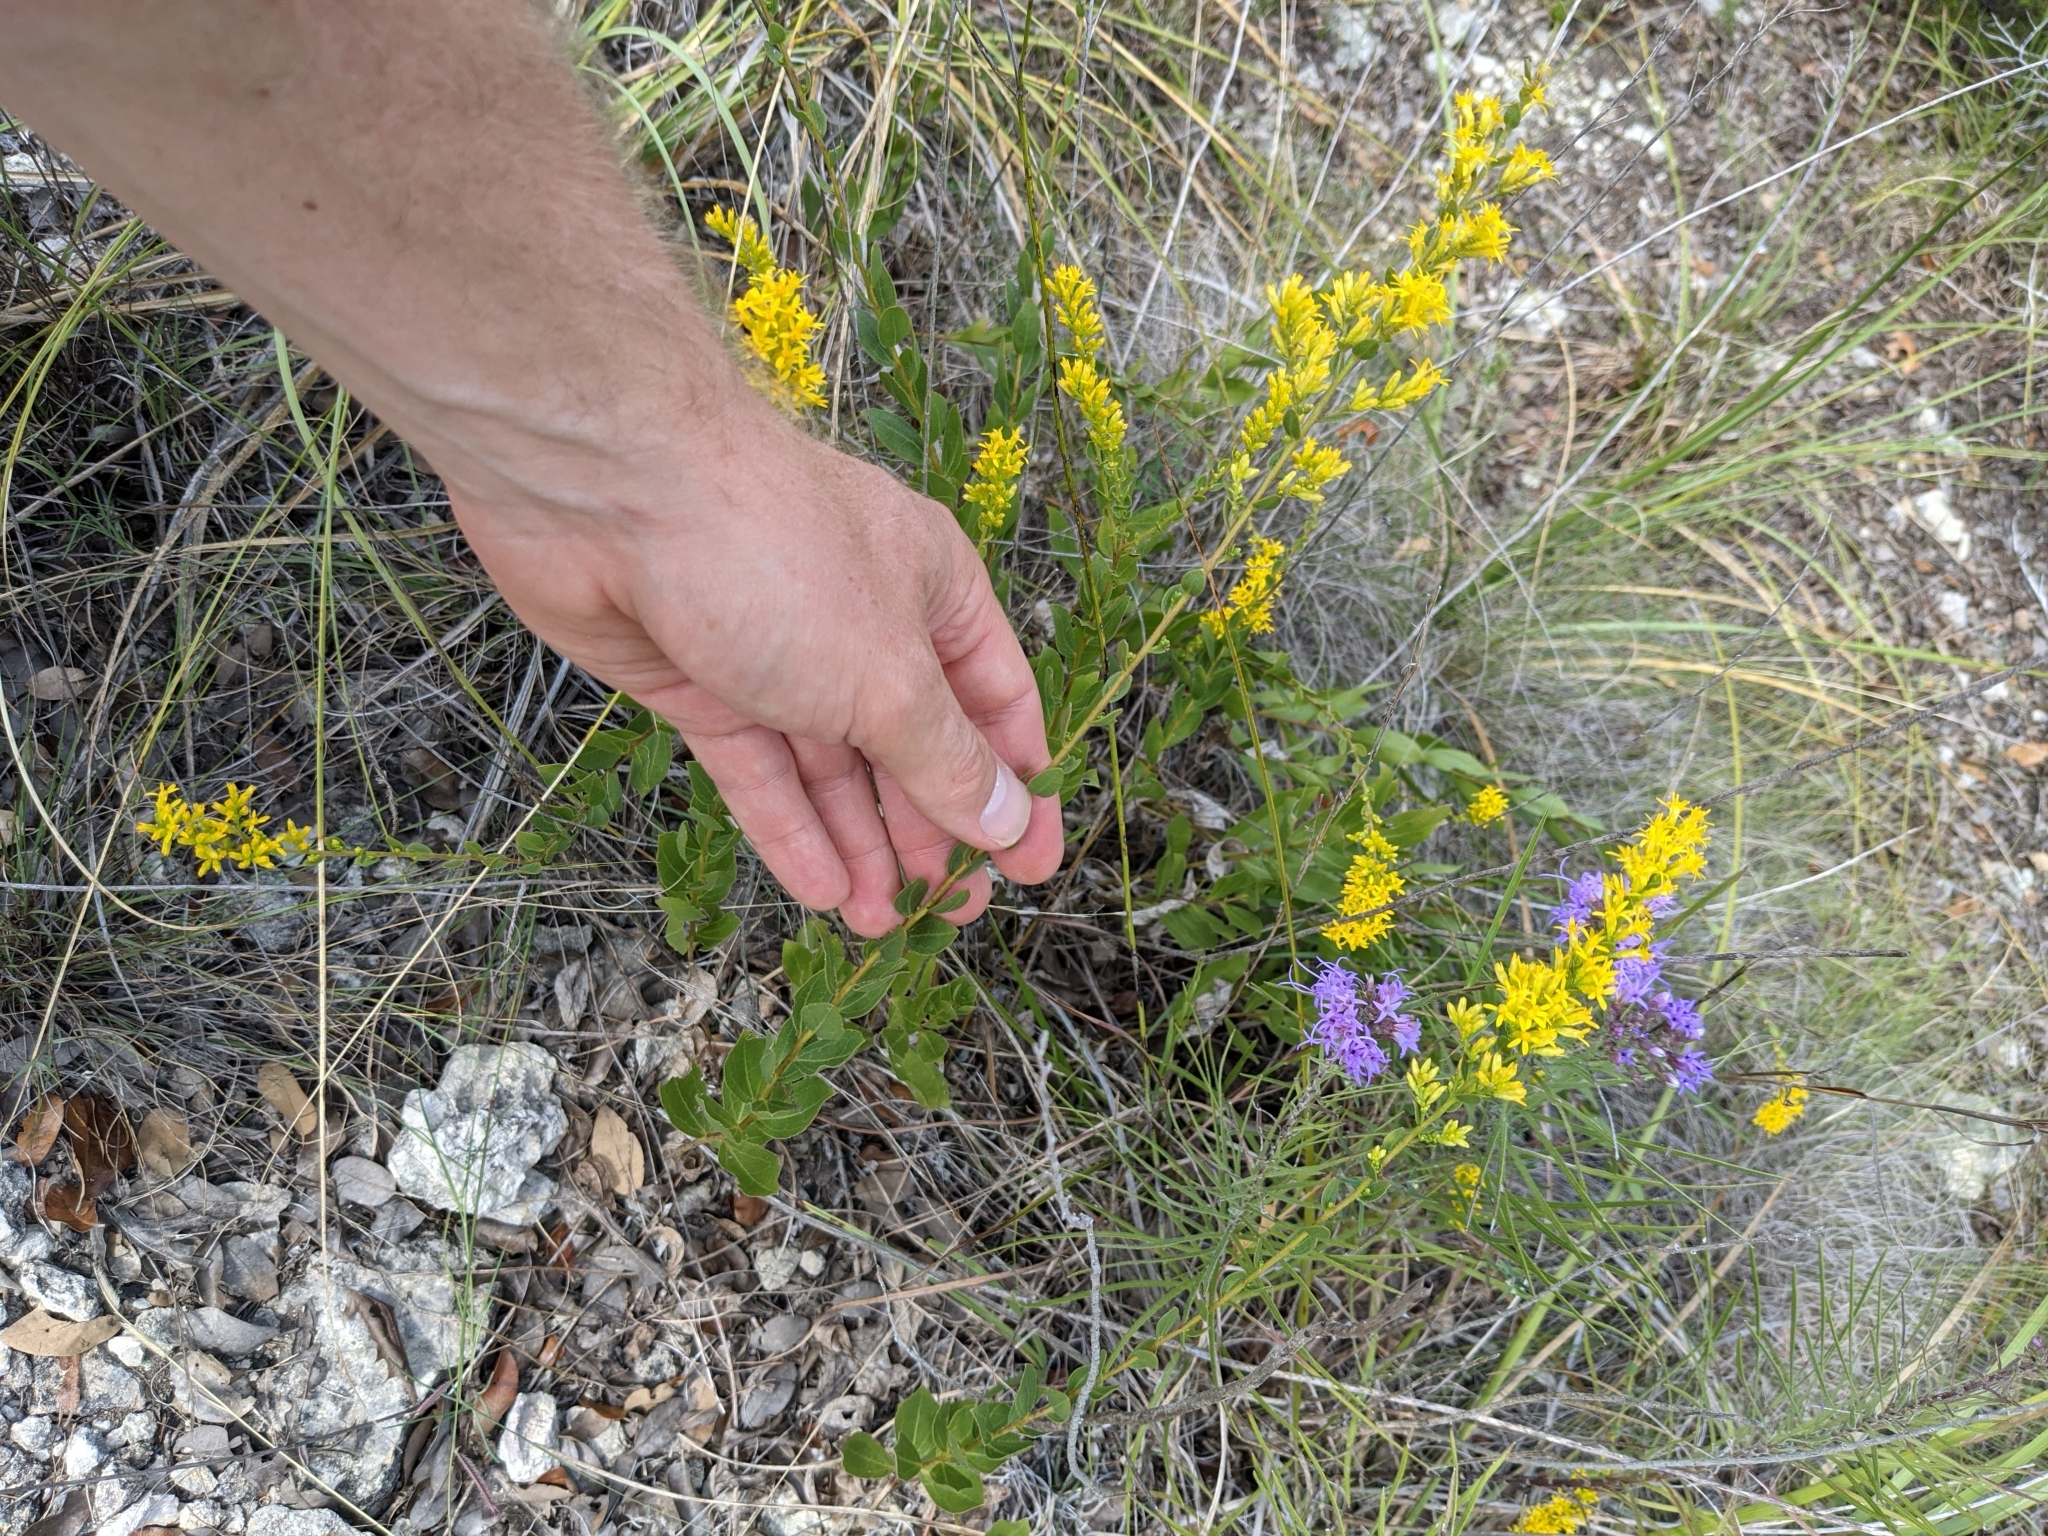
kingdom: Plantae
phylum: Tracheophyta
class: Magnoliopsida
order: Asterales
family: Asteraceae
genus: Solidago
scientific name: Solidago radula
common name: Western rough goldenrod
